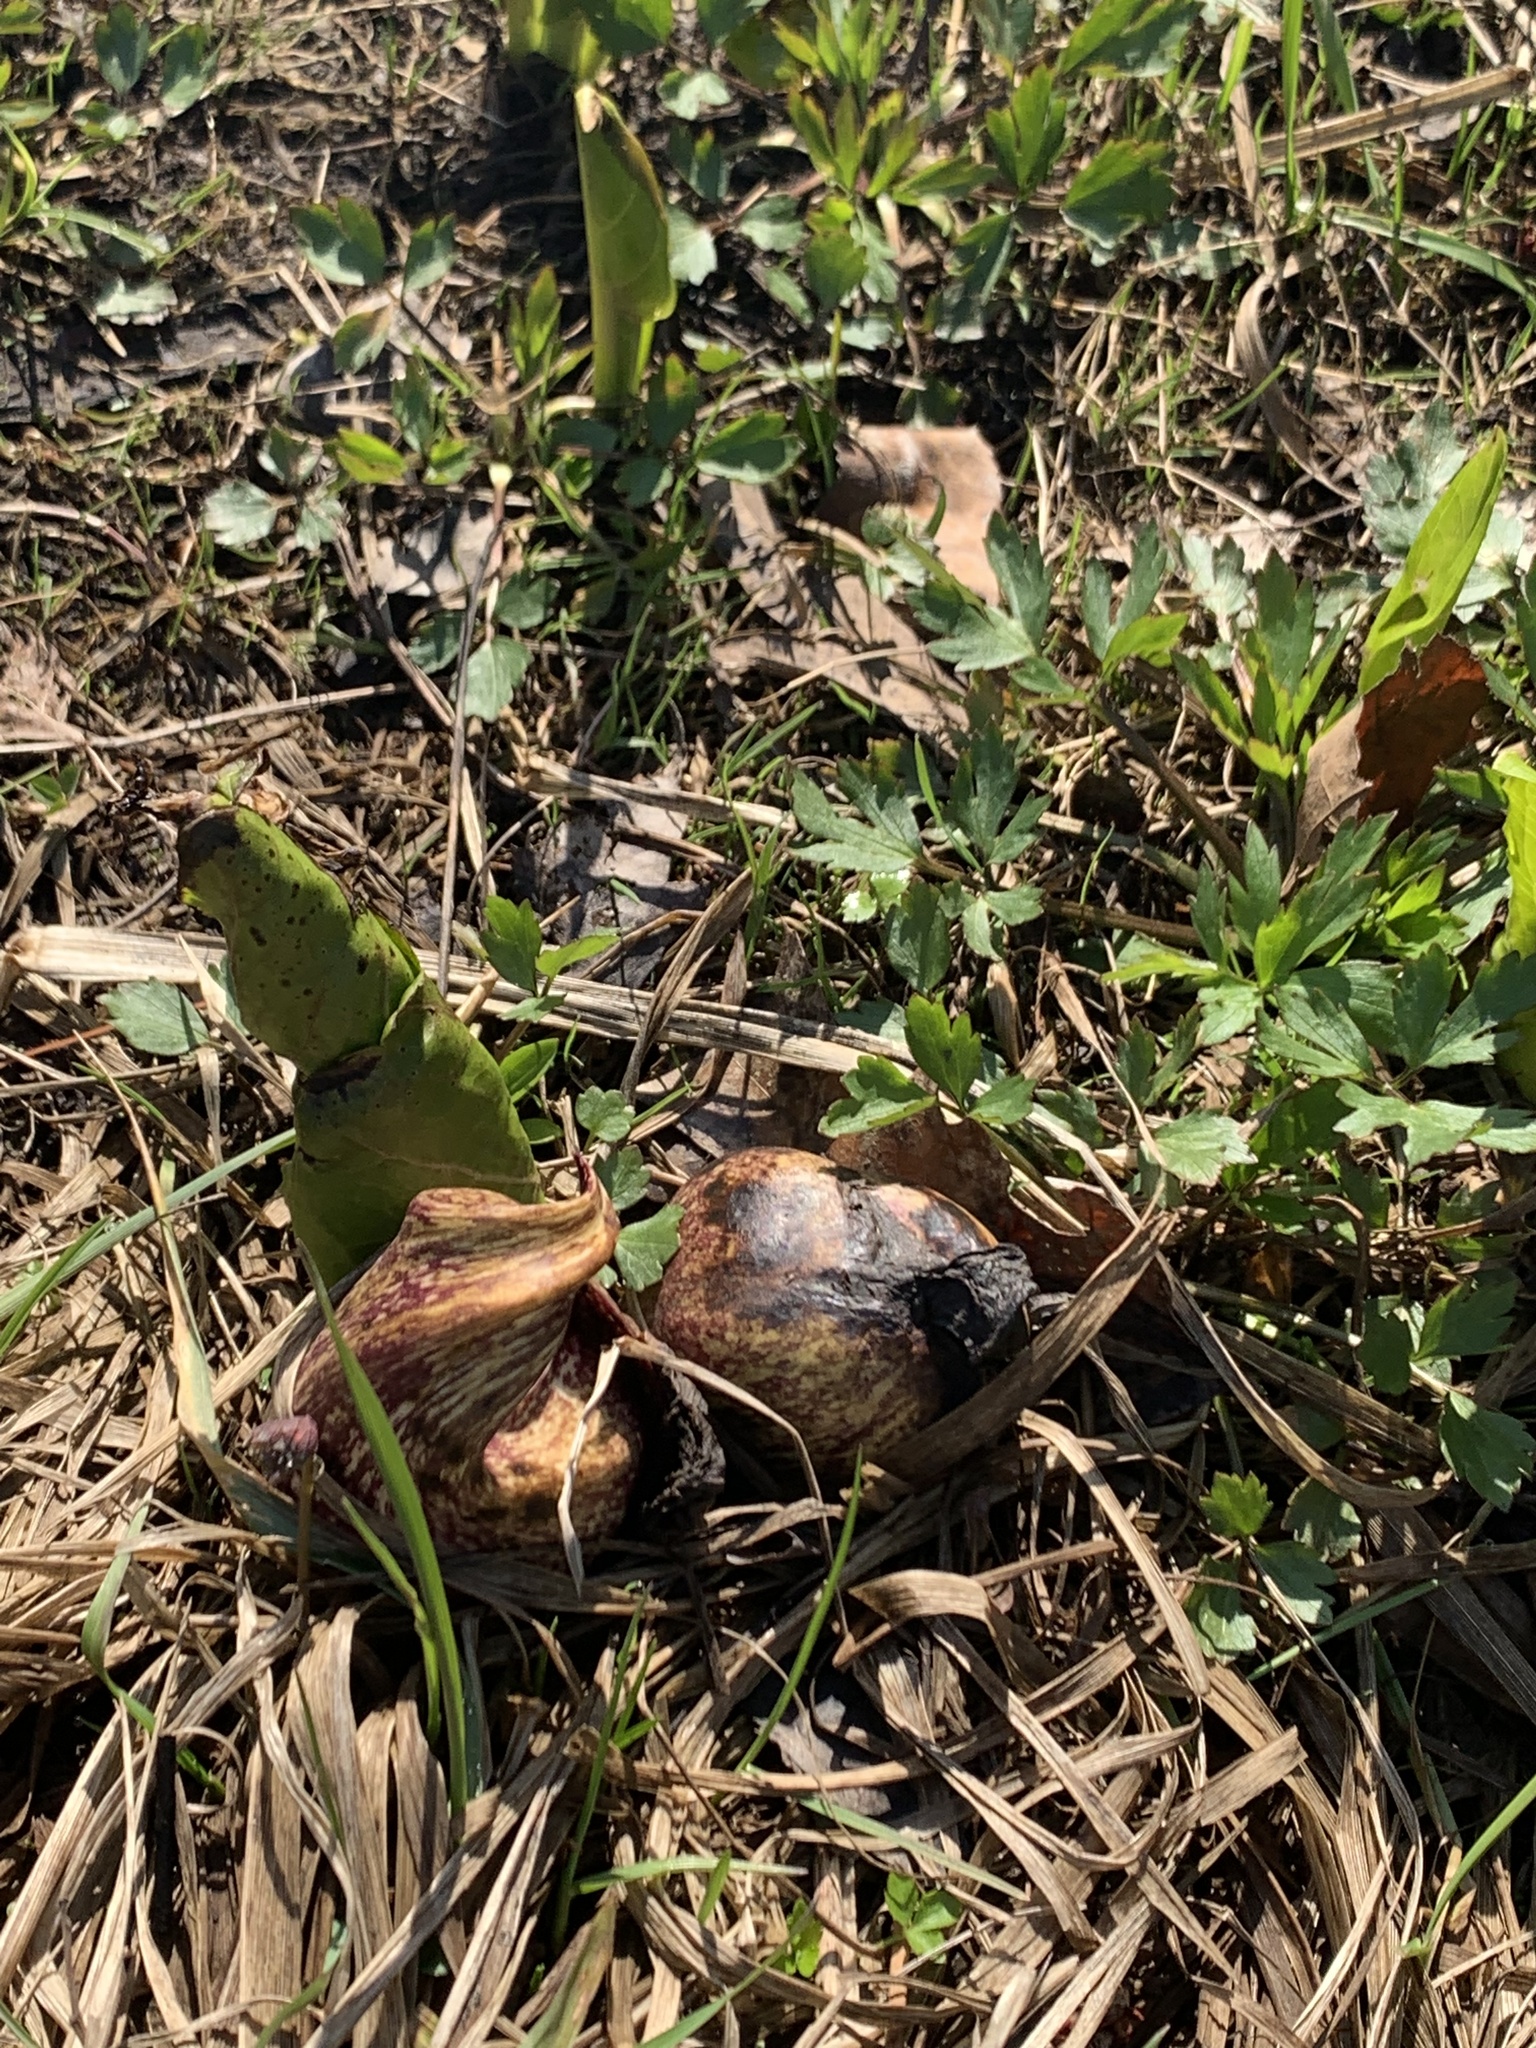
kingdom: Plantae
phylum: Tracheophyta
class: Liliopsida
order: Alismatales
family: Araceae
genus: Symplocarpus
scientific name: Symplocarpus foetidus
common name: Eastern skunk cabbage
